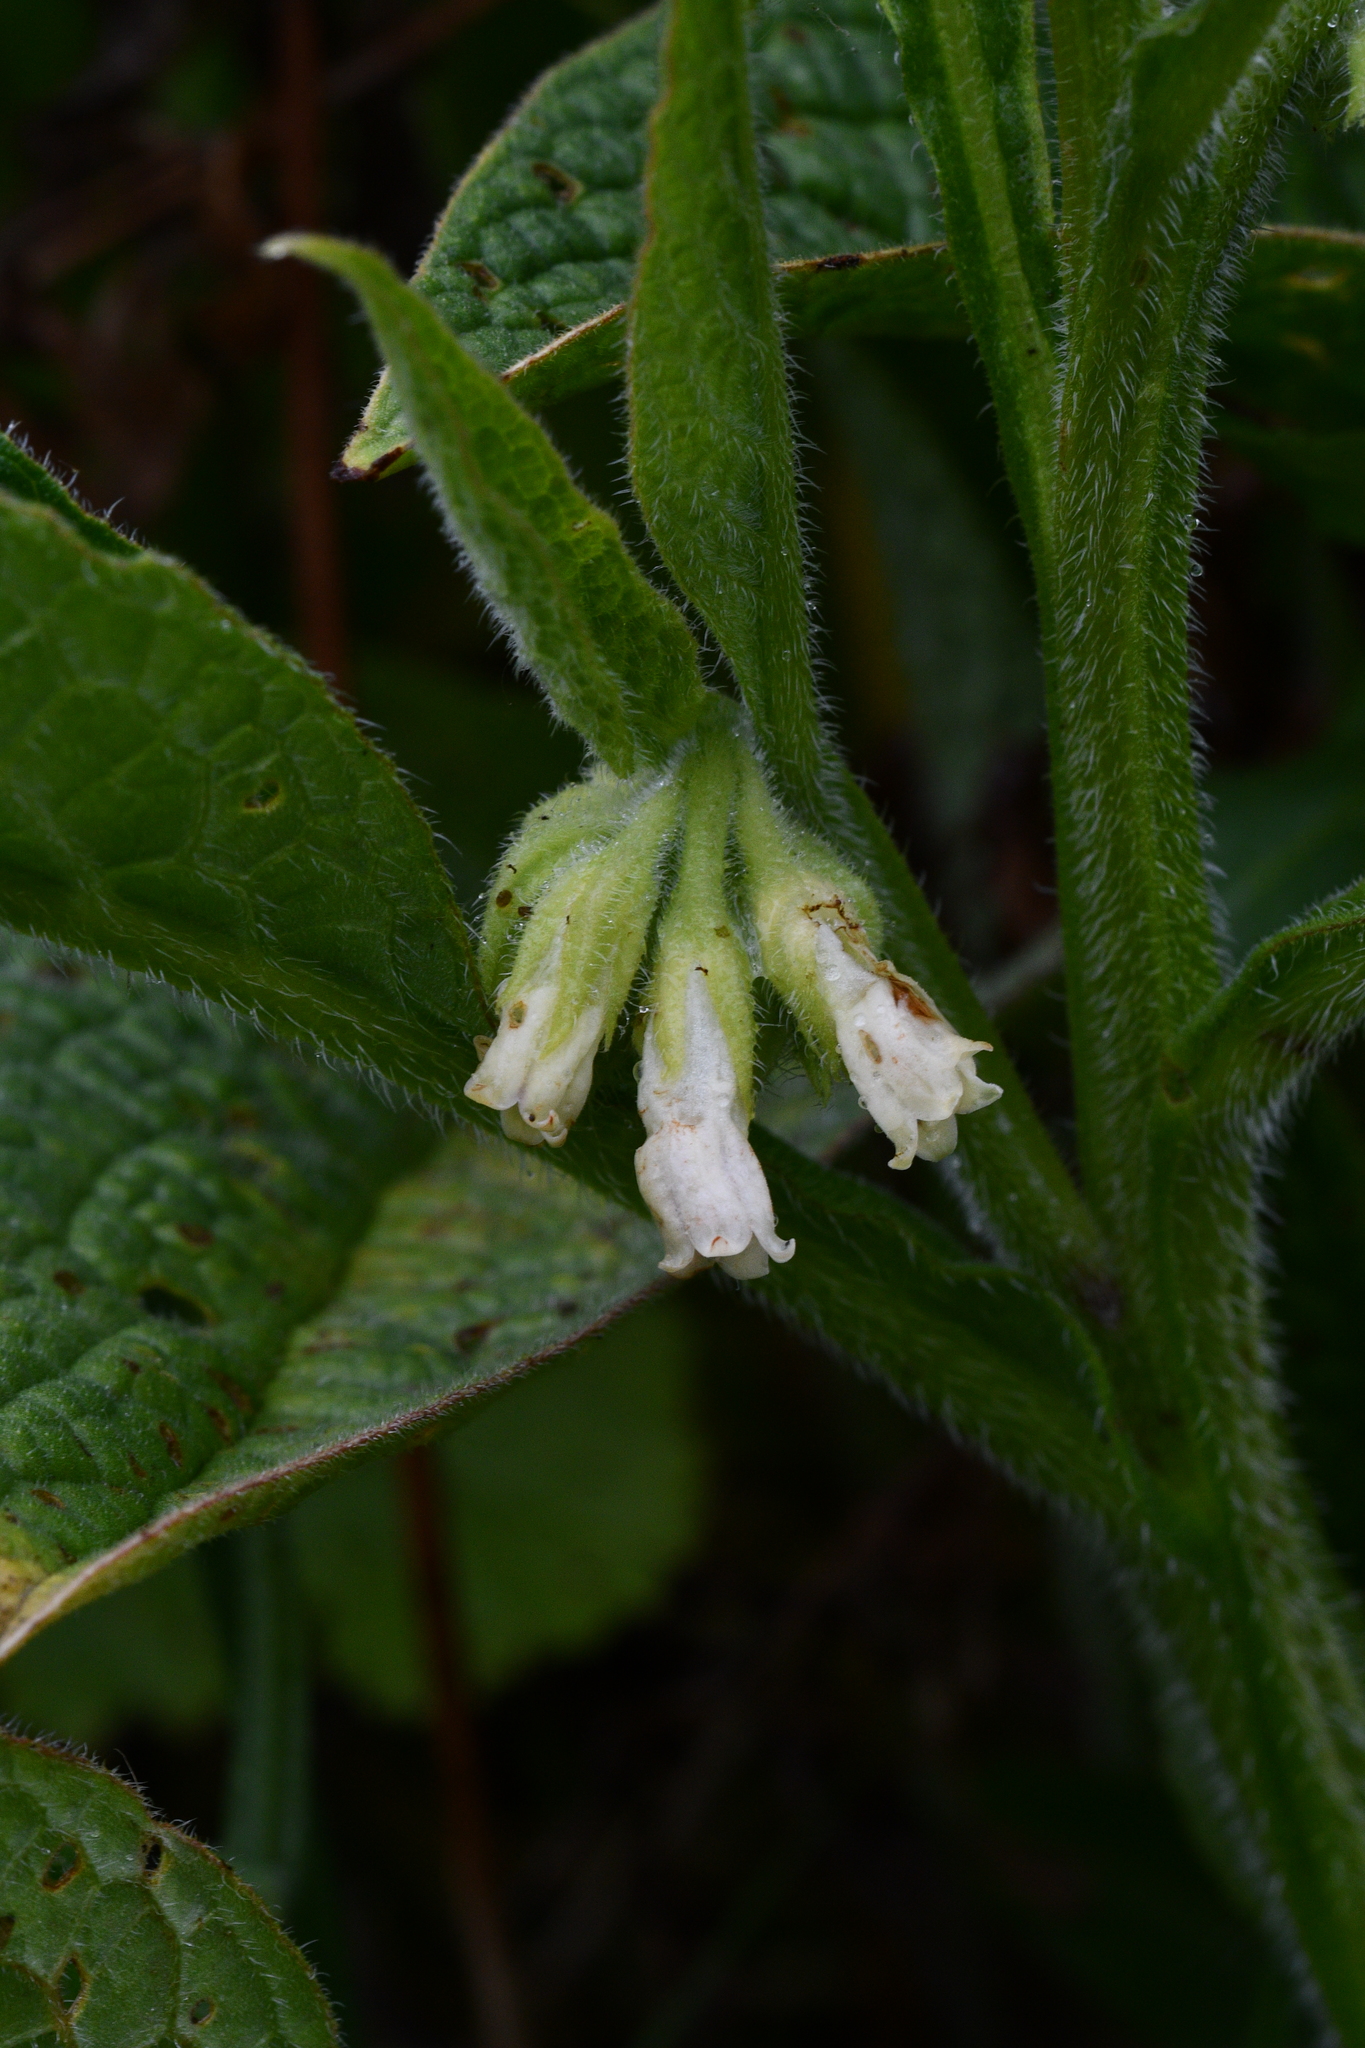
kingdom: Plantae
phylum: Tracheophyta
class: Magnoliopsida
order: Boraginales
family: Boraginaceae
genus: Symphytum
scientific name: Symphytum officinale
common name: Common comfrey
